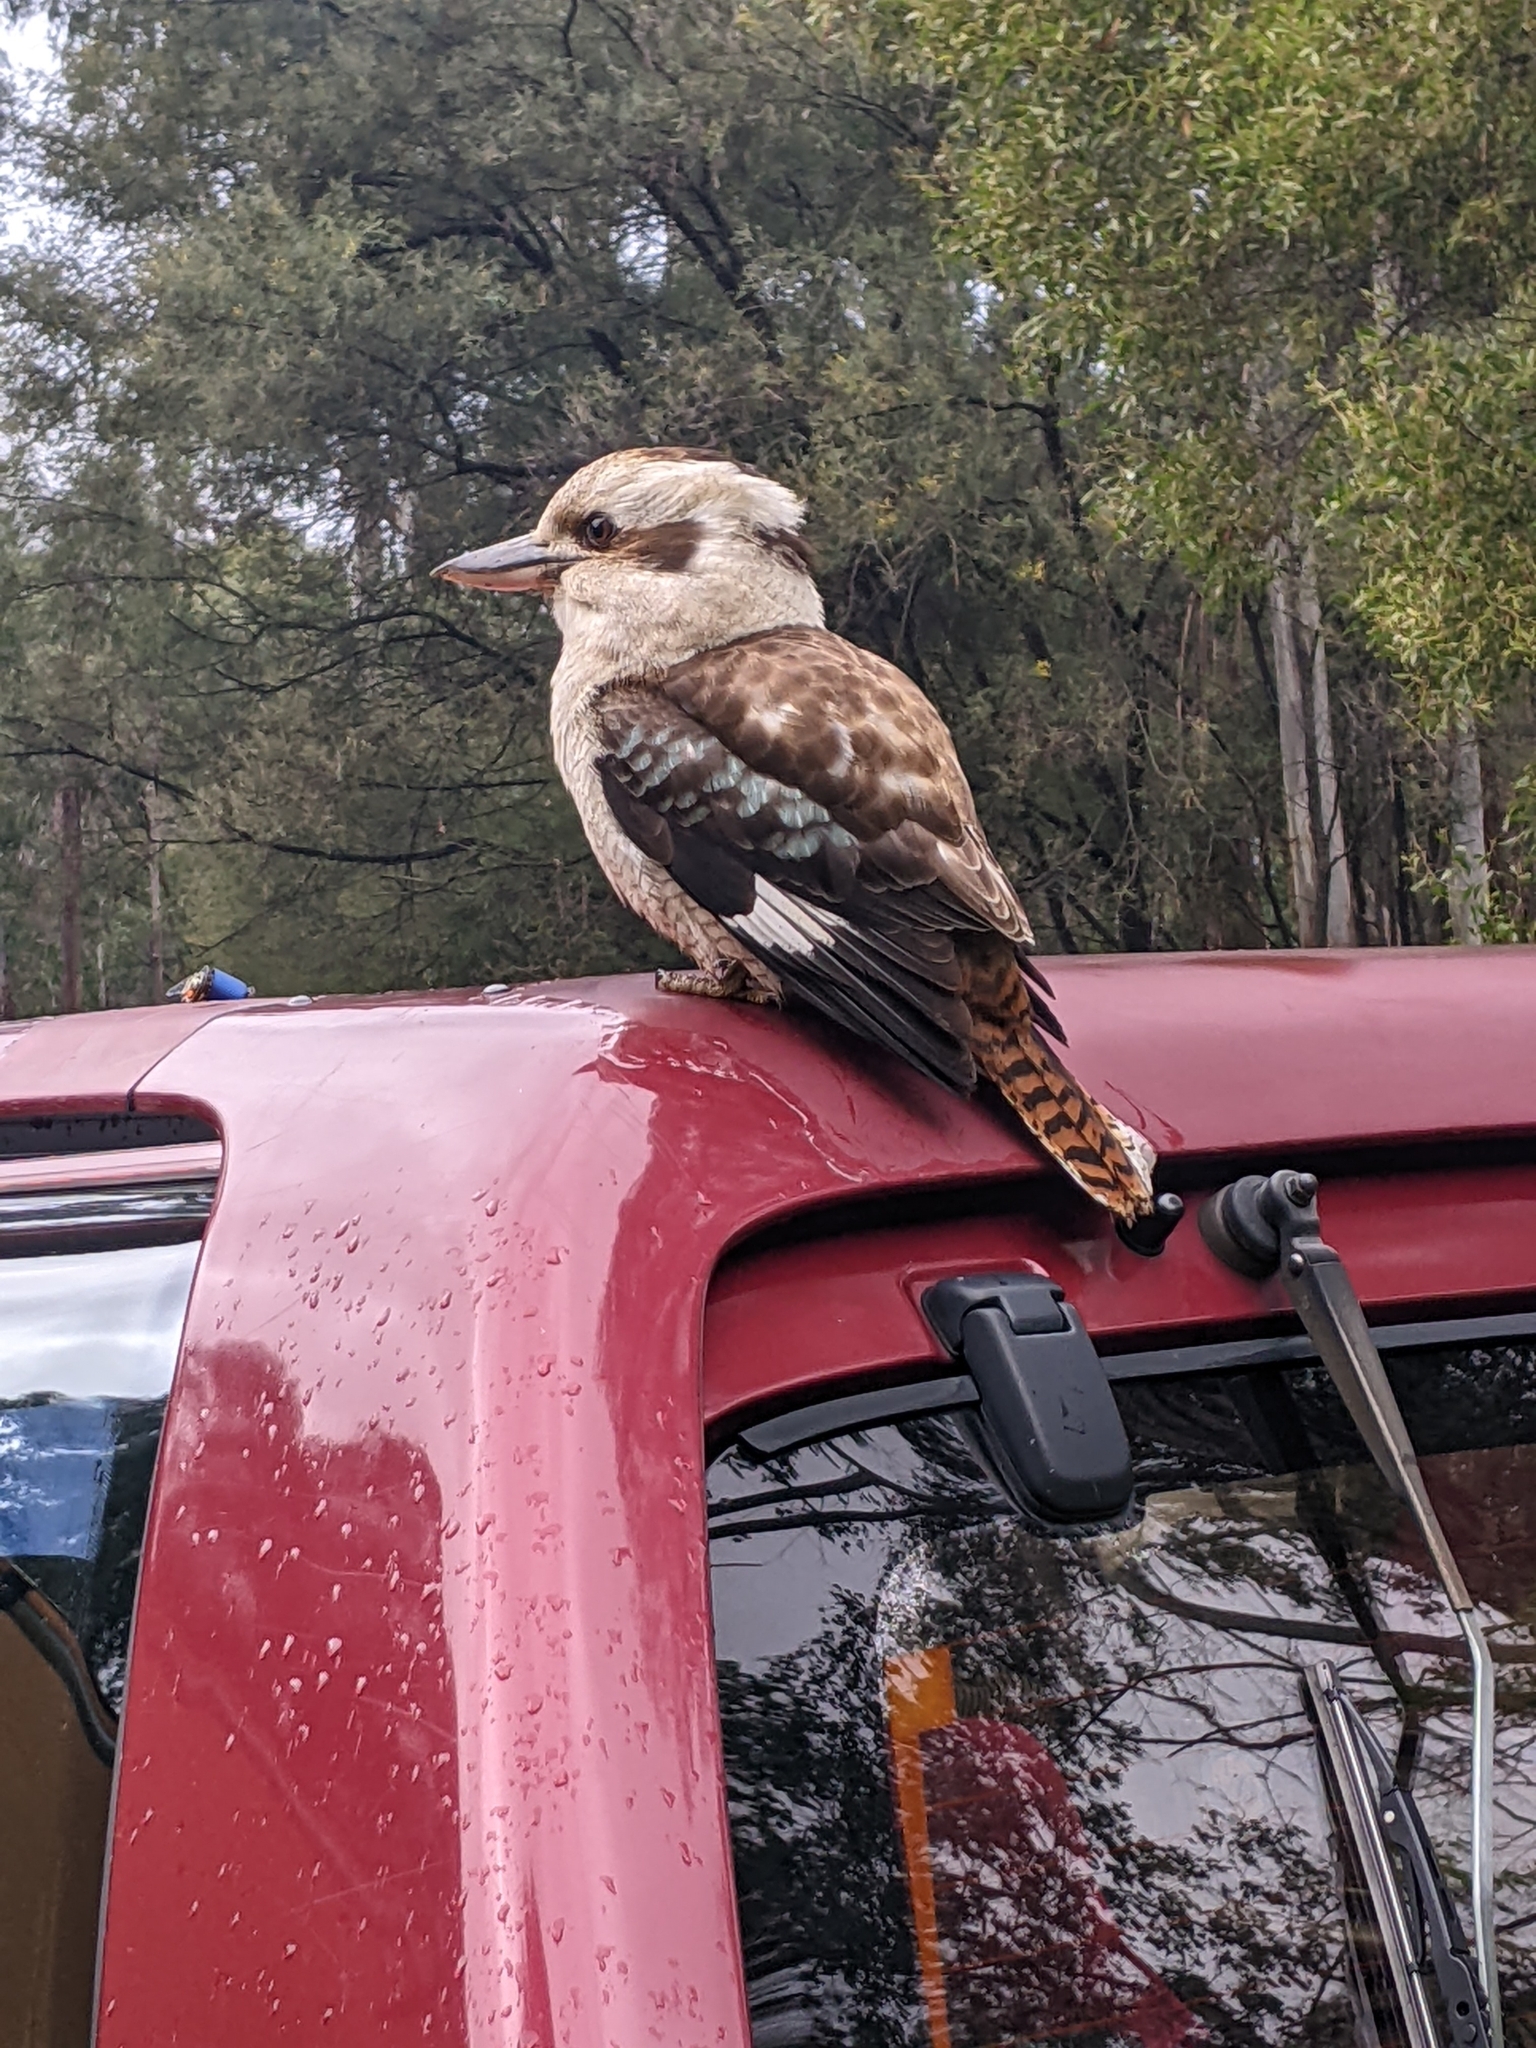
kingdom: Animalia
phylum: Chordata
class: Aves
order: Coraciiformes
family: Alcedinidae
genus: Dacelo
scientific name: Dacelo novaeguineae
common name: Laughing kookaburra
